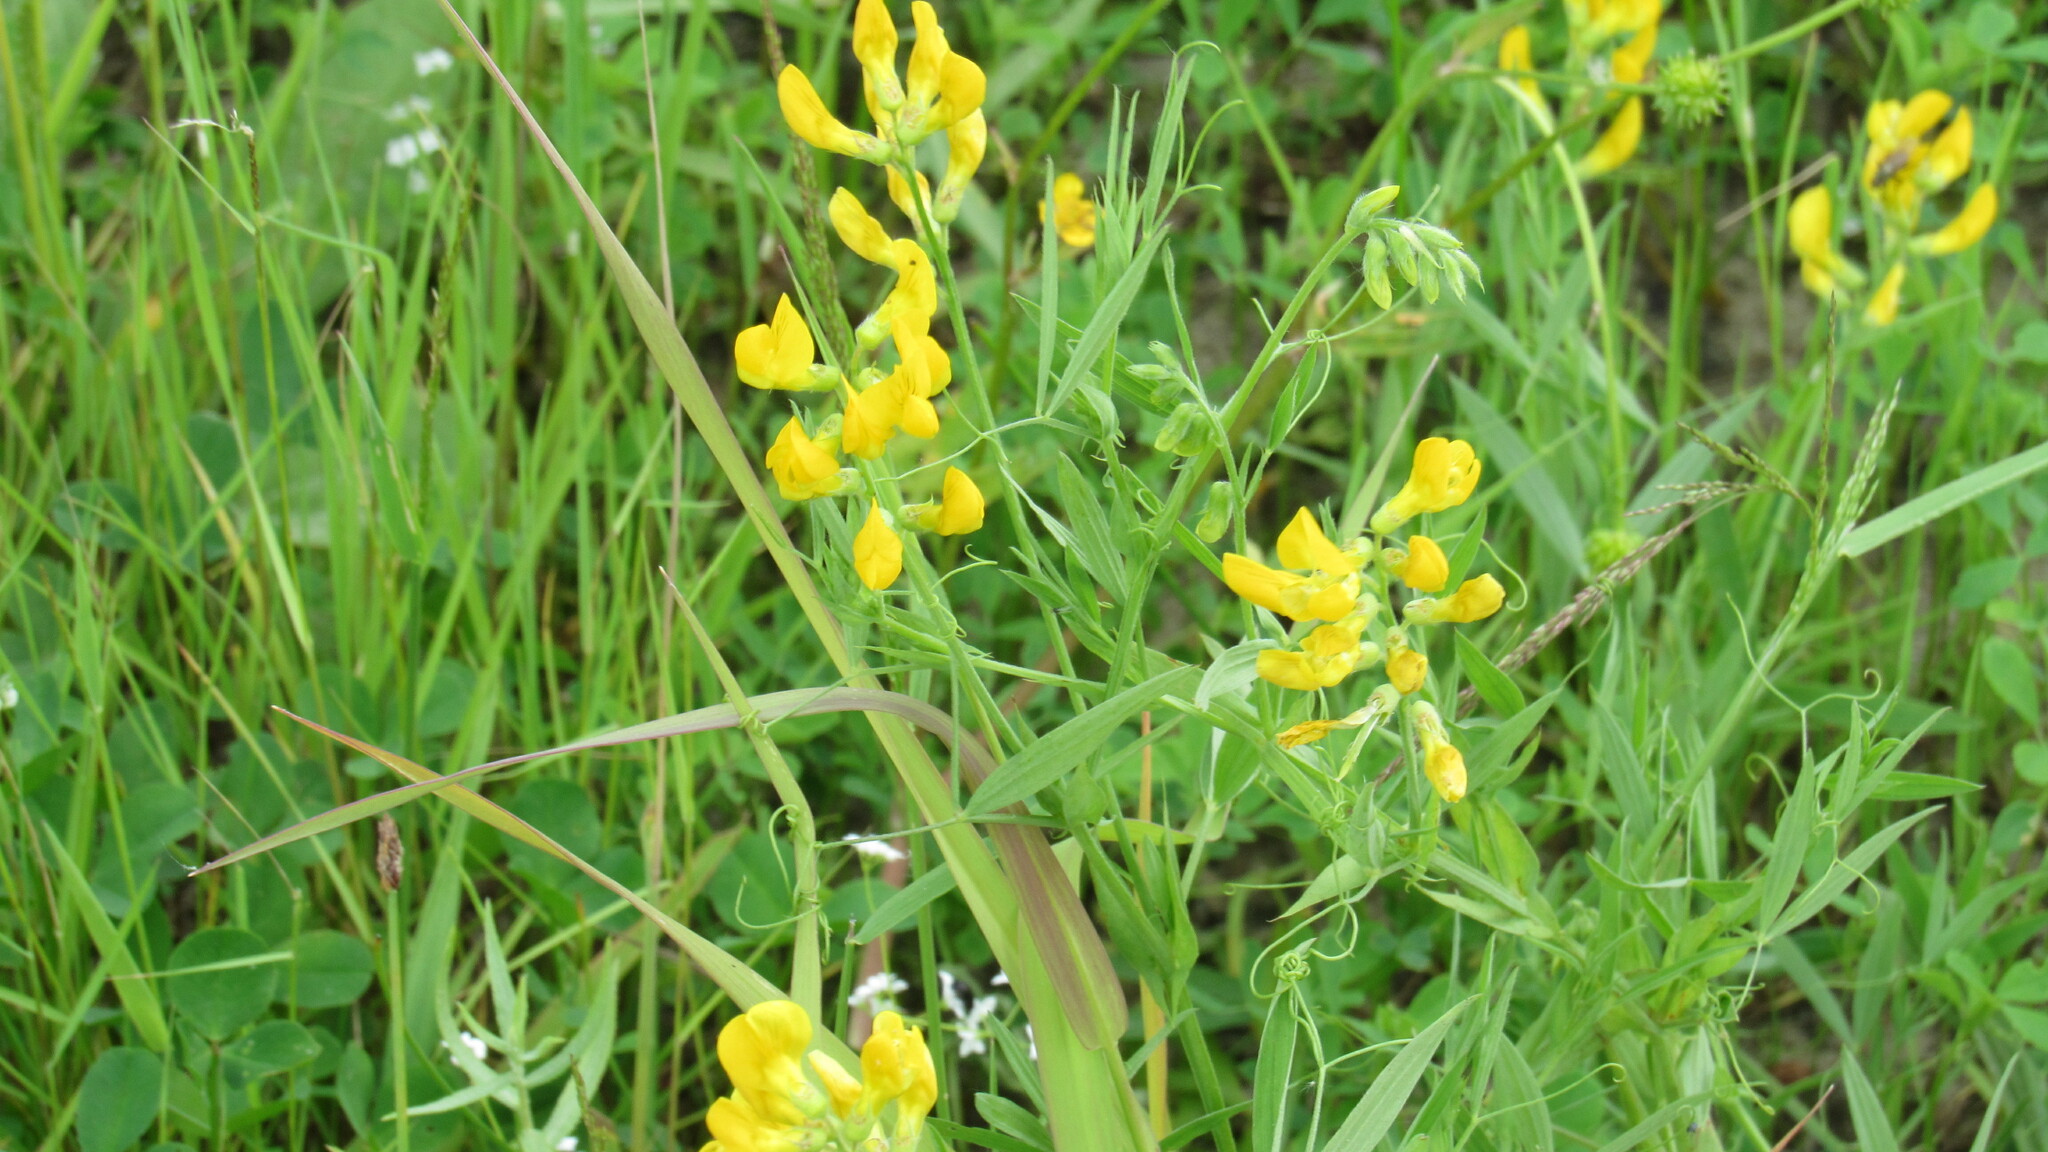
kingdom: Plantae
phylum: Tracheophyta
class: Magnoliopsida
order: Fabales
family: Fabaceae
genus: Lathyrus
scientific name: Lathyrus pratensis
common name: Meadow vetchling
